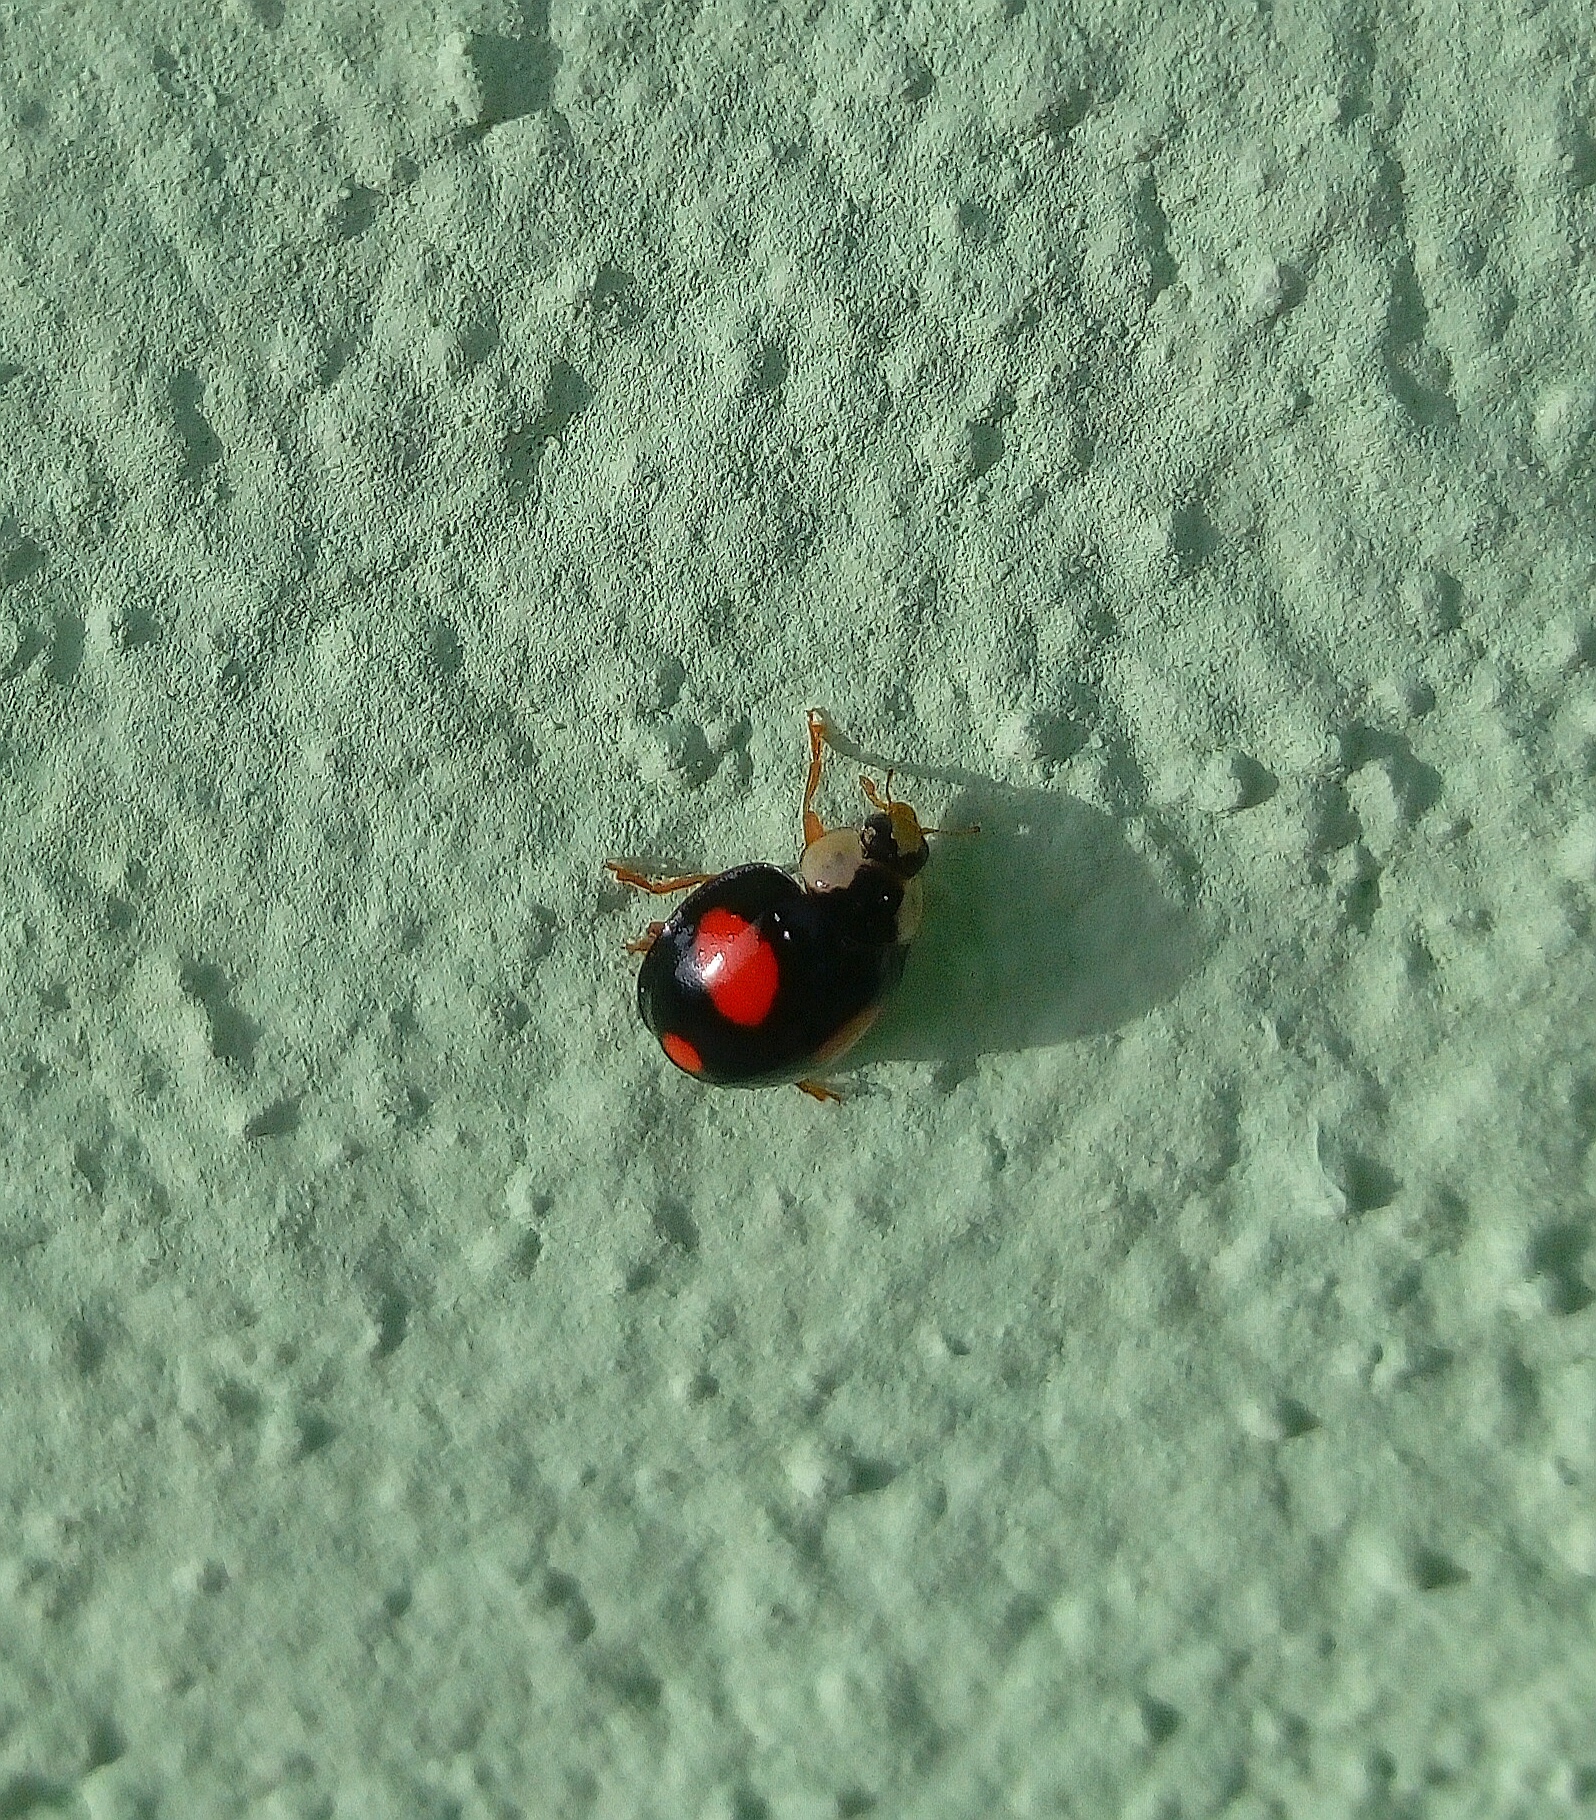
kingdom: Animalia
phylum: Arthropoda
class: Insecta
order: Coleoptera
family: Coccinellidae
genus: Harmonia
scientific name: Harmonia axyridis
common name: Harlequin ladybird
